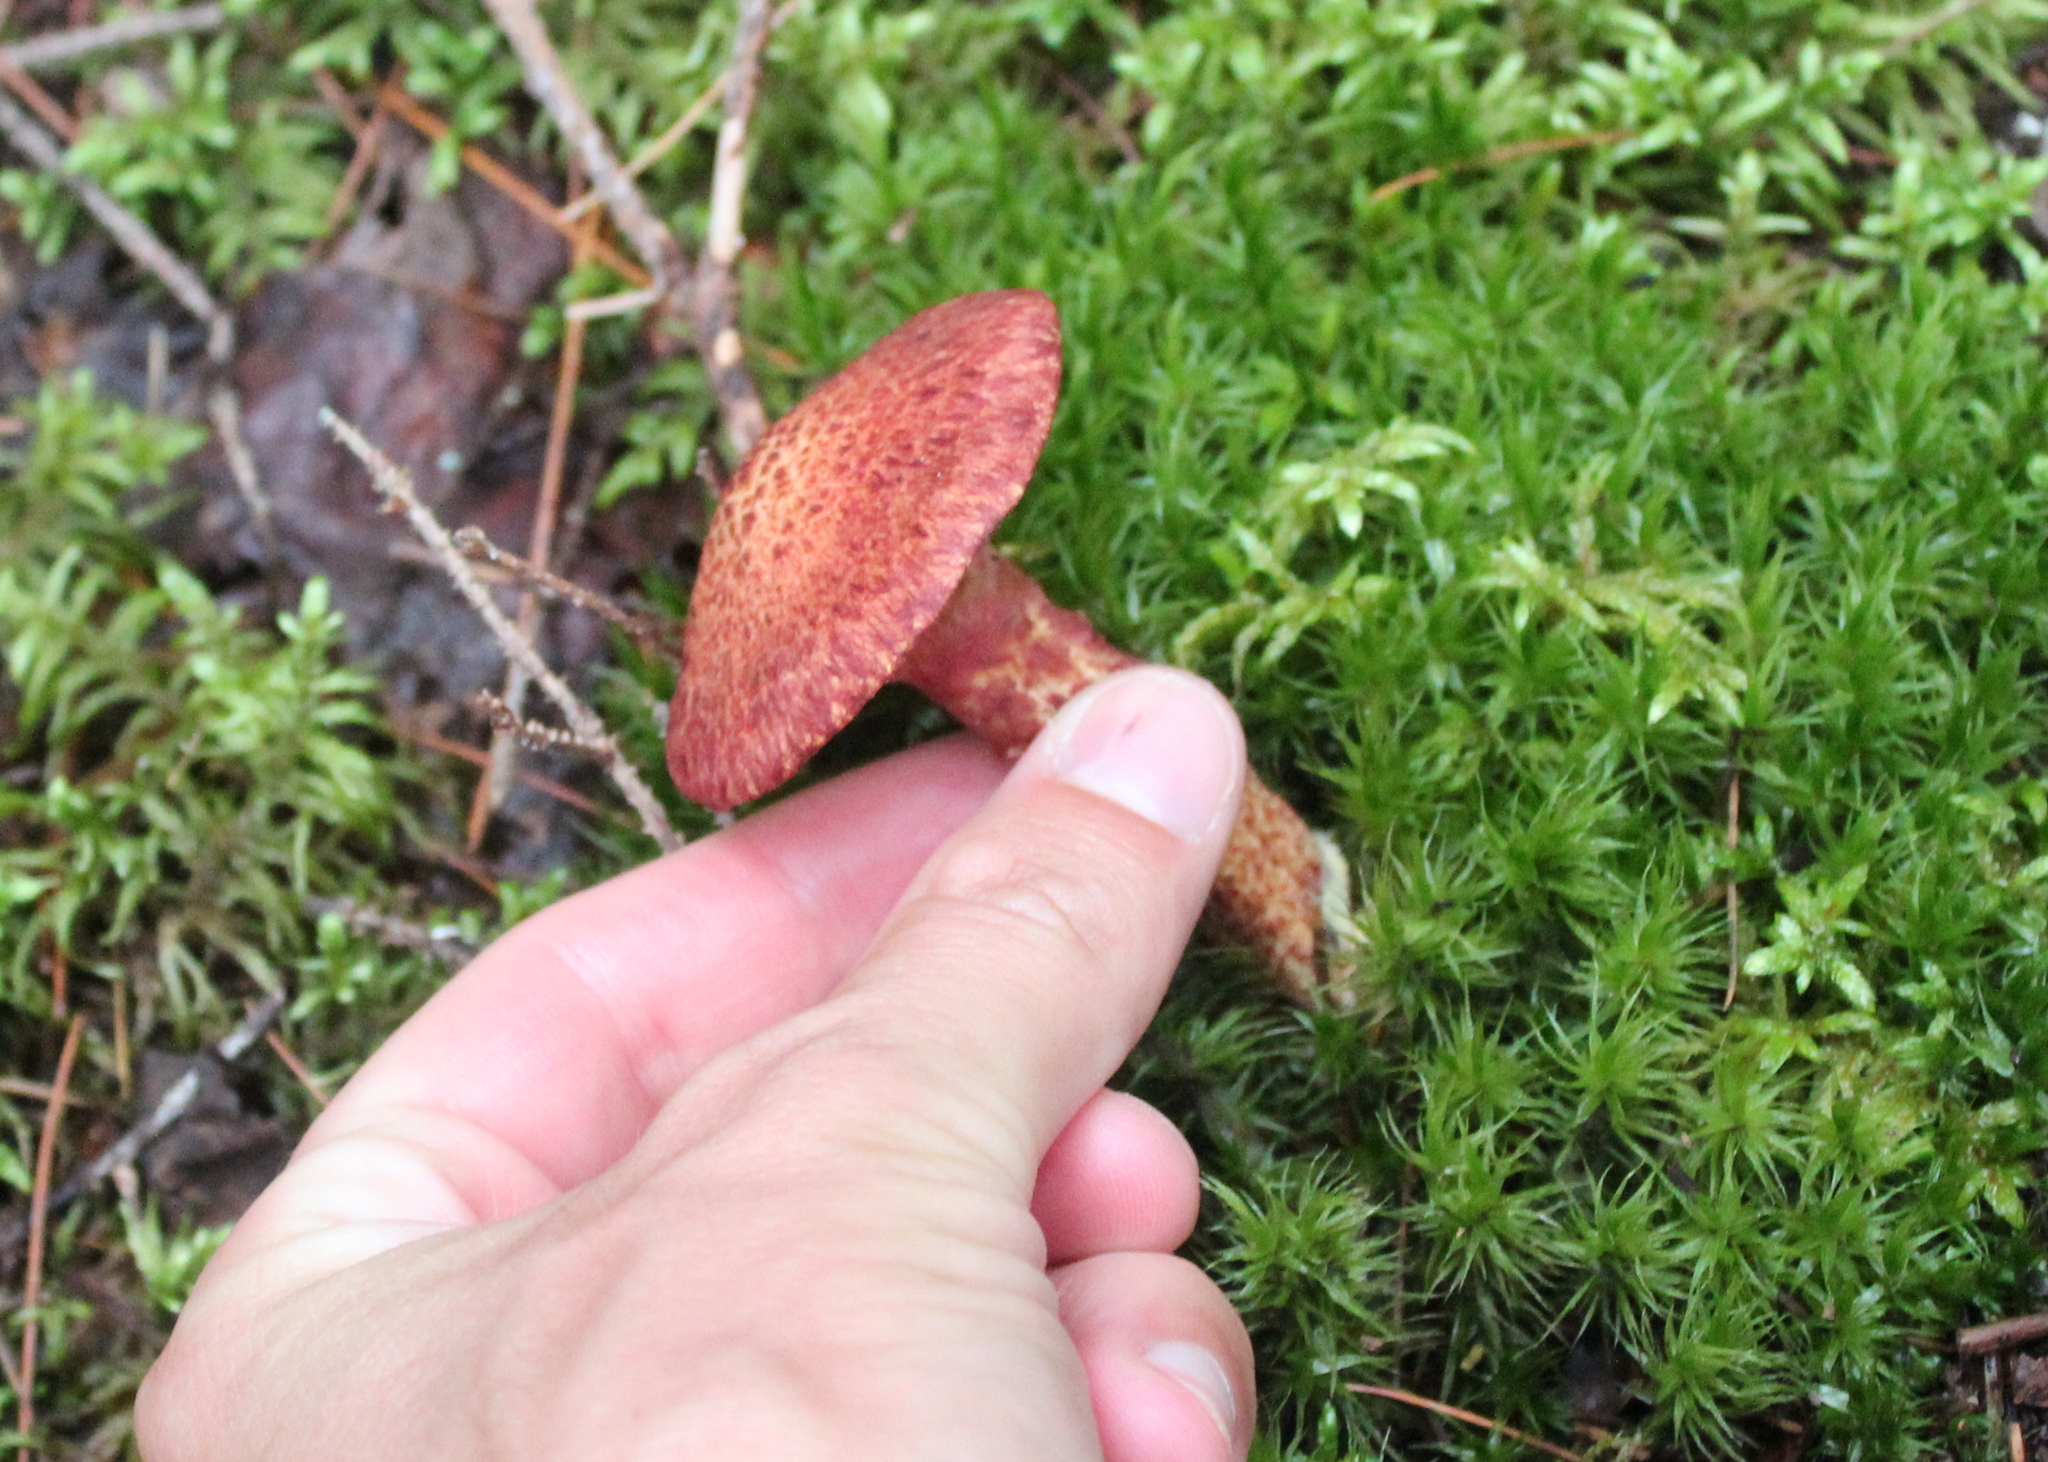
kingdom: Fungi
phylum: Basidiomycota
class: Agaricomycetes
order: Boletales
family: Suillaceae
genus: Suillus
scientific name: Suillus spraguei
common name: Painted suillus
